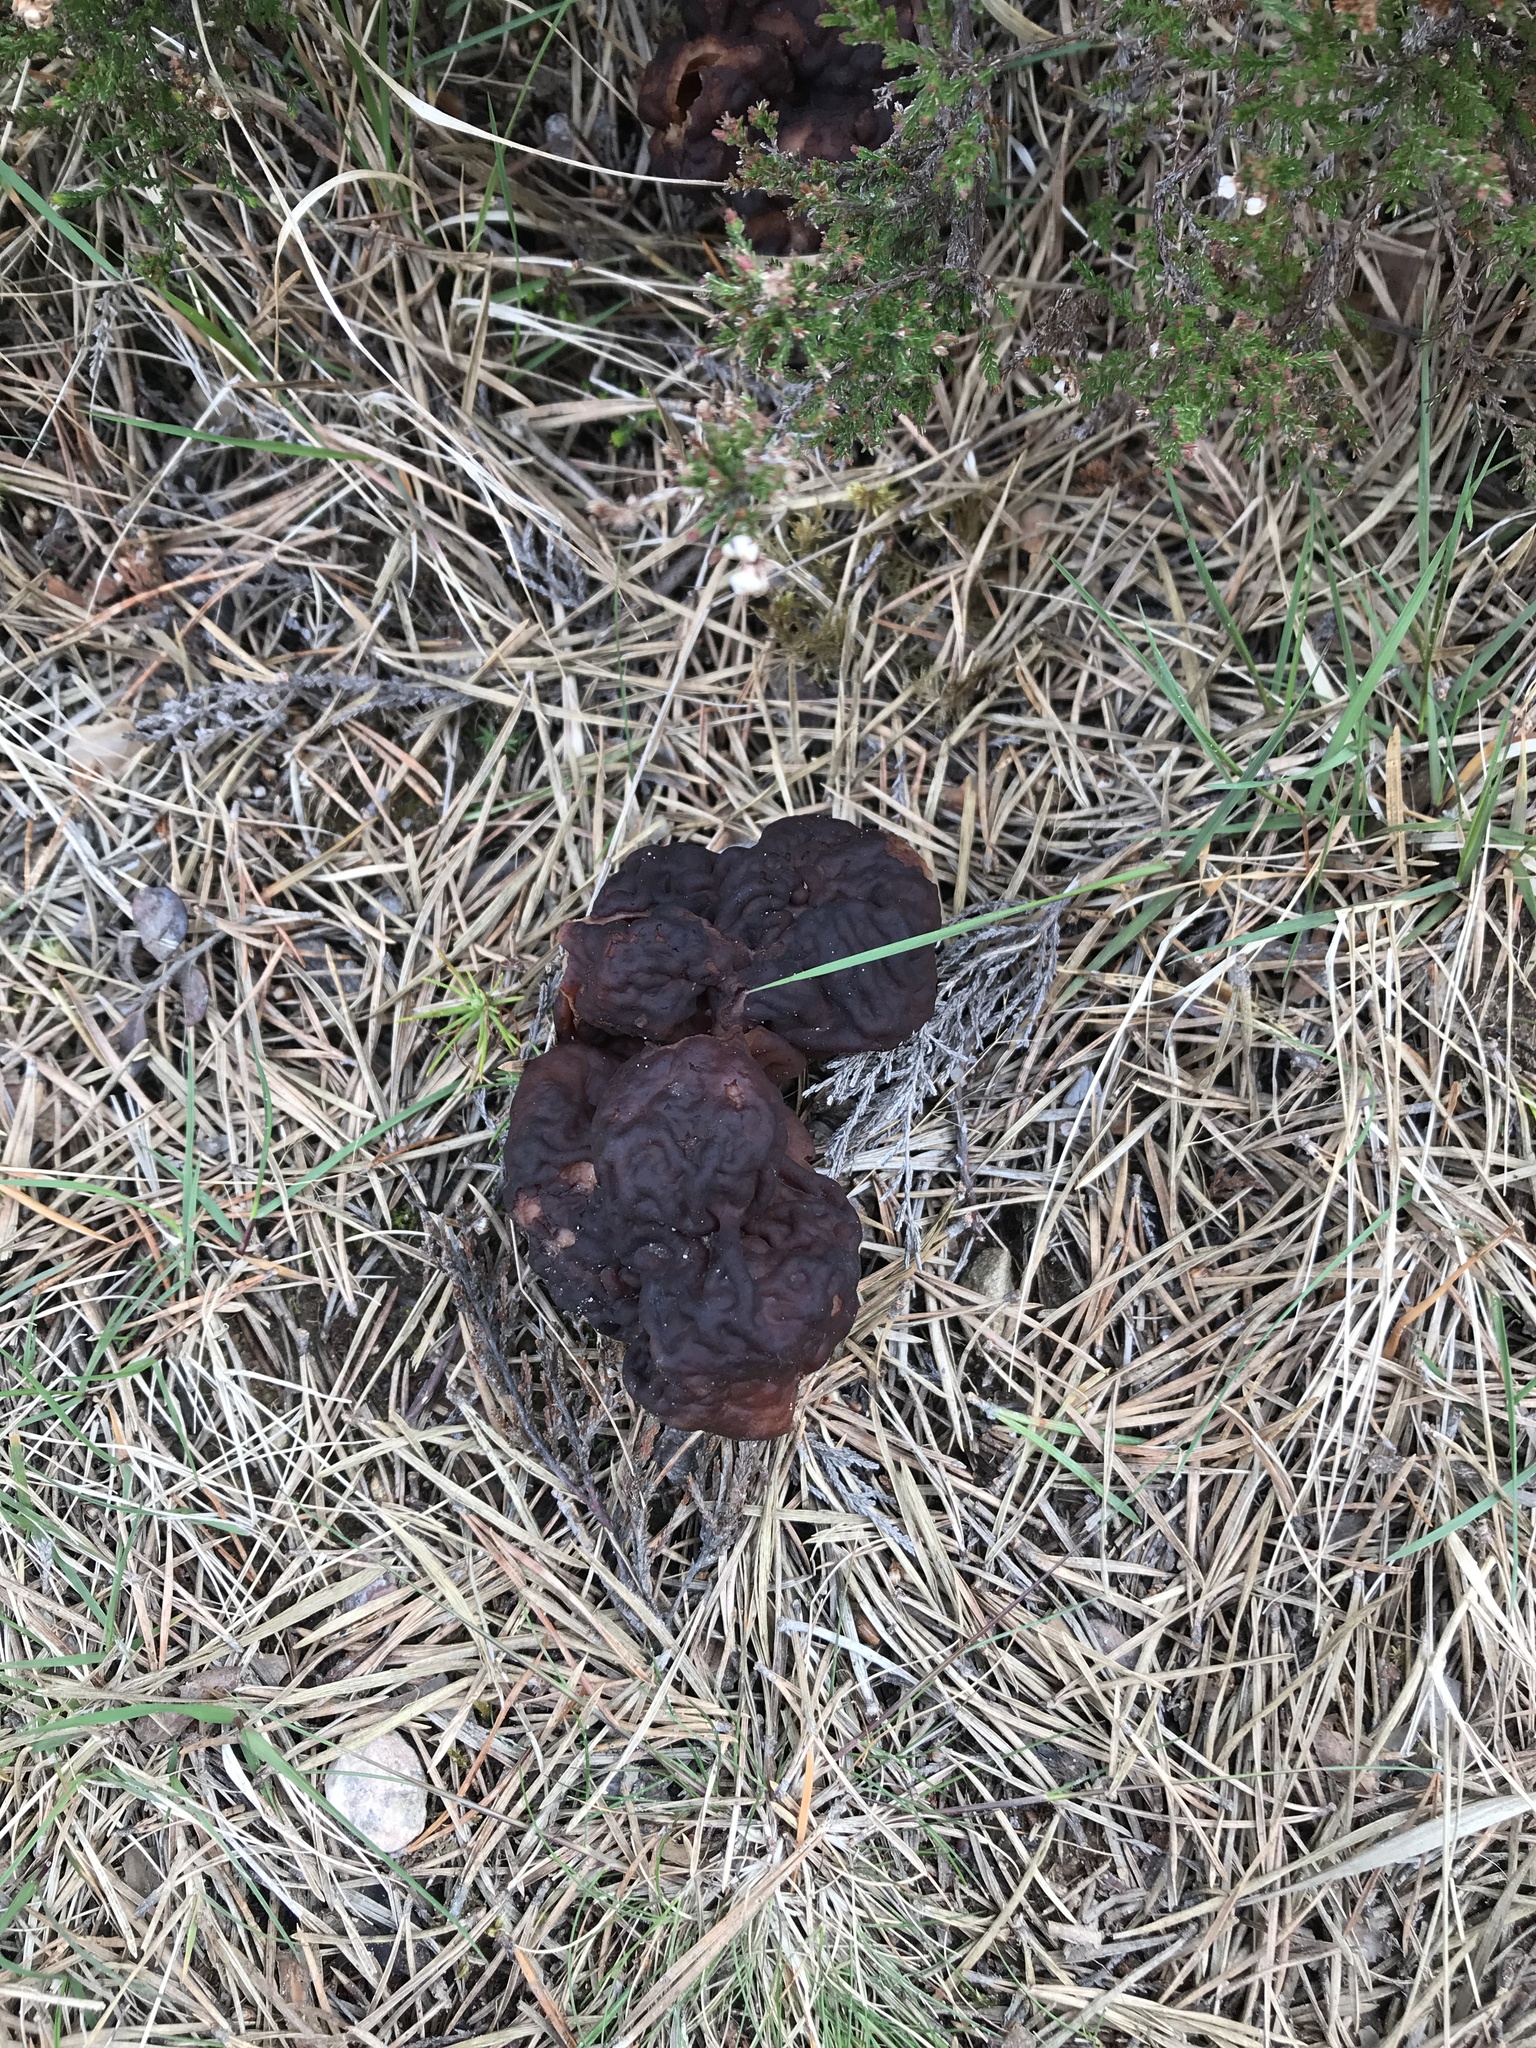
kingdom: Fungi
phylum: Ascomycota
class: Pezizomycetes
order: Pezizales
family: Discinaceae
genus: Gyromitra
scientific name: Gyromitra esculenta
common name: False morel
